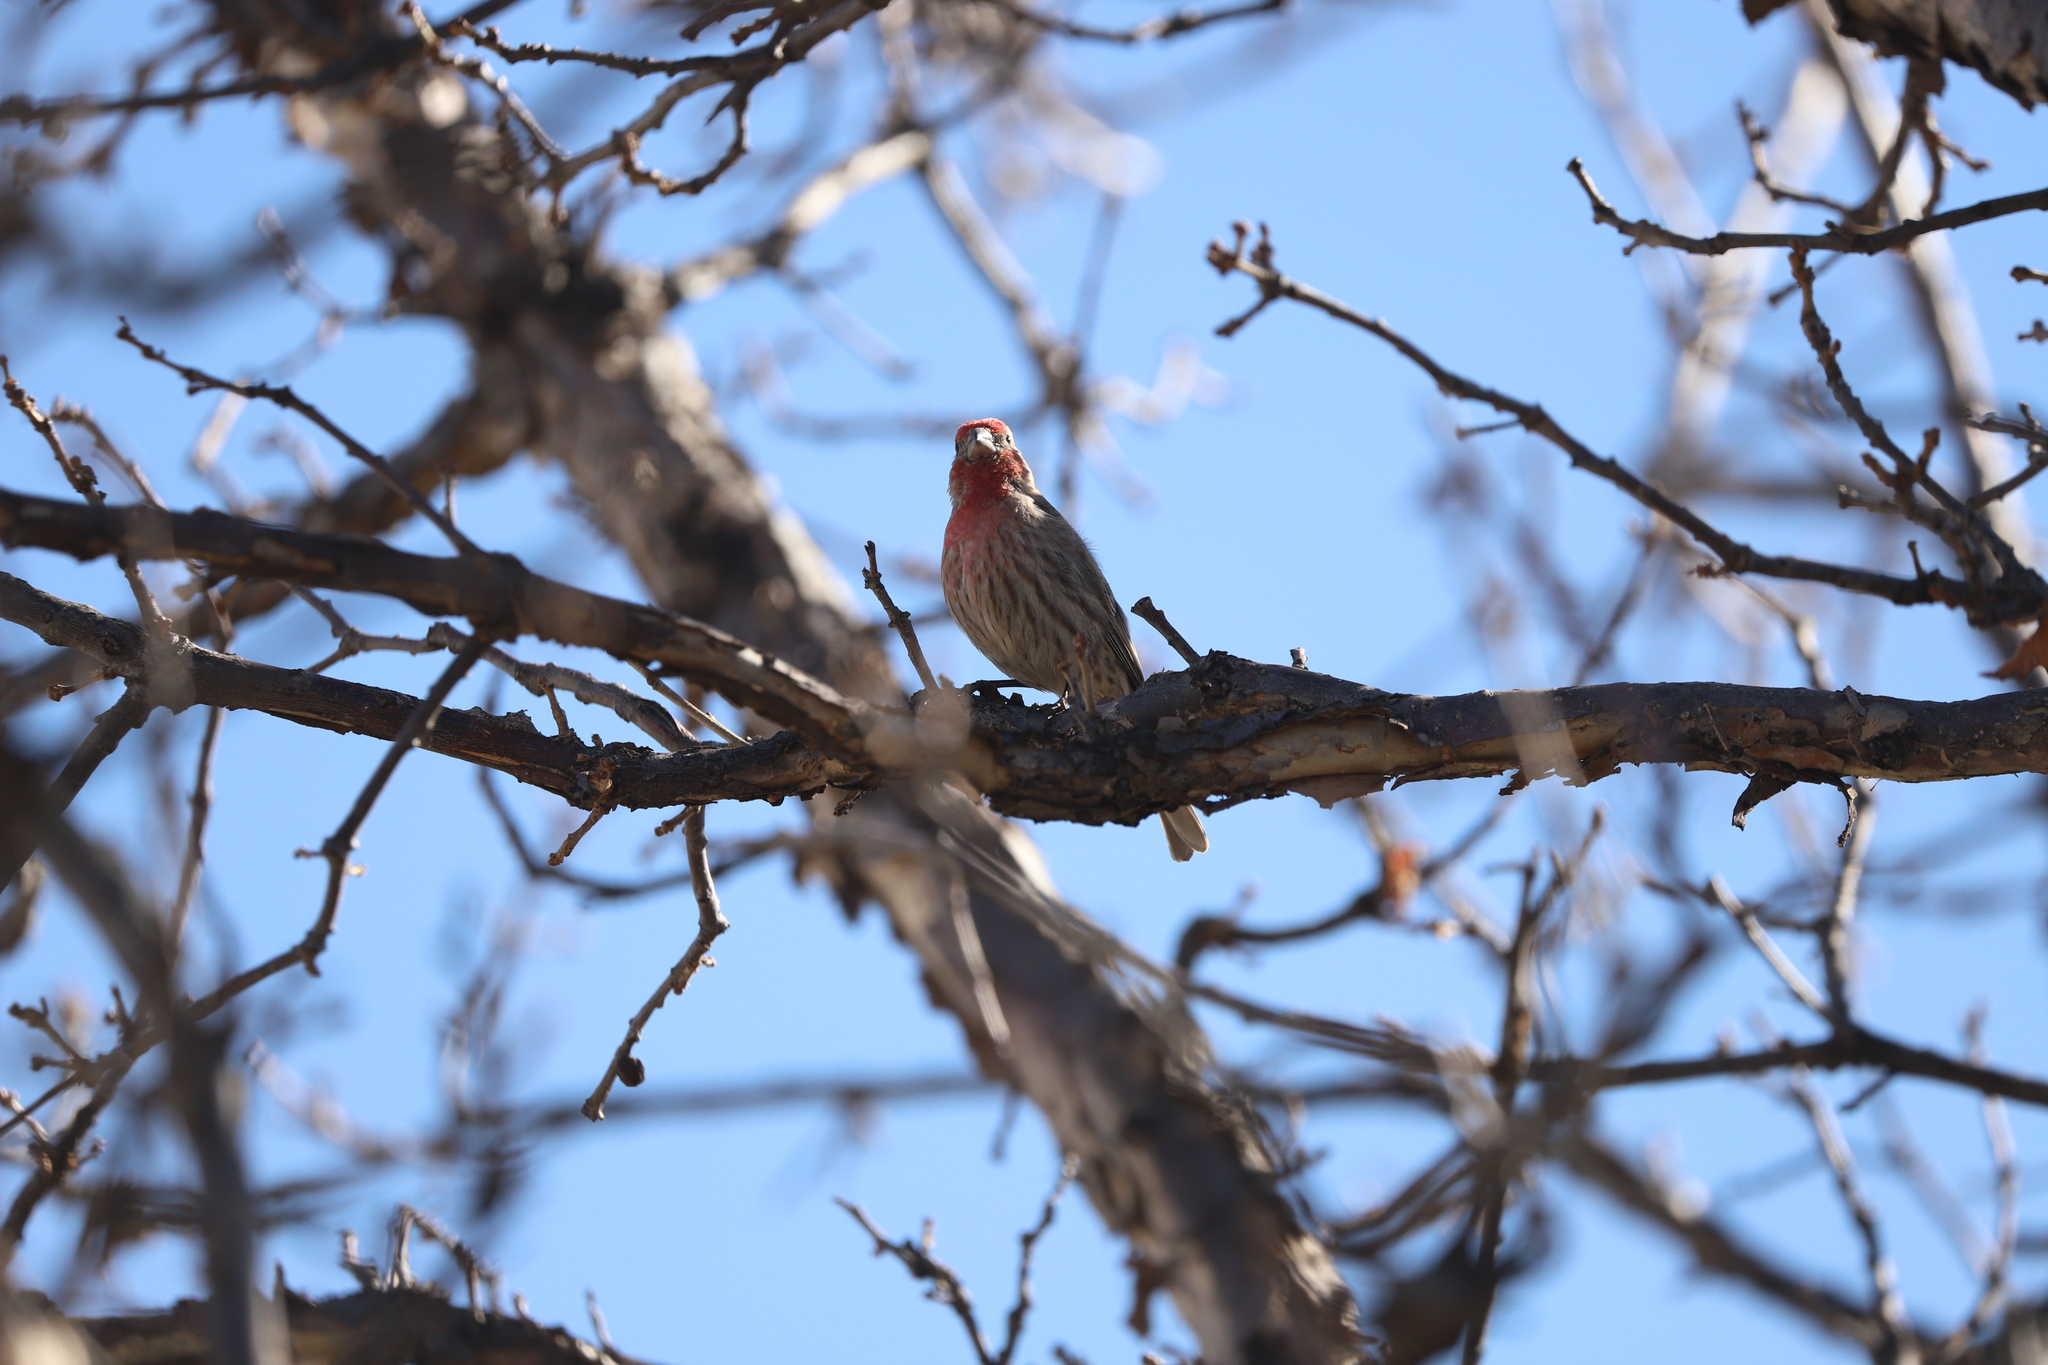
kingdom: Animalia
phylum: Chordata
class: Aves
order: Passeriformes
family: Fringillidae
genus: Haemorhous
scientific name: Haemorhous mexicanus
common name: House finch
